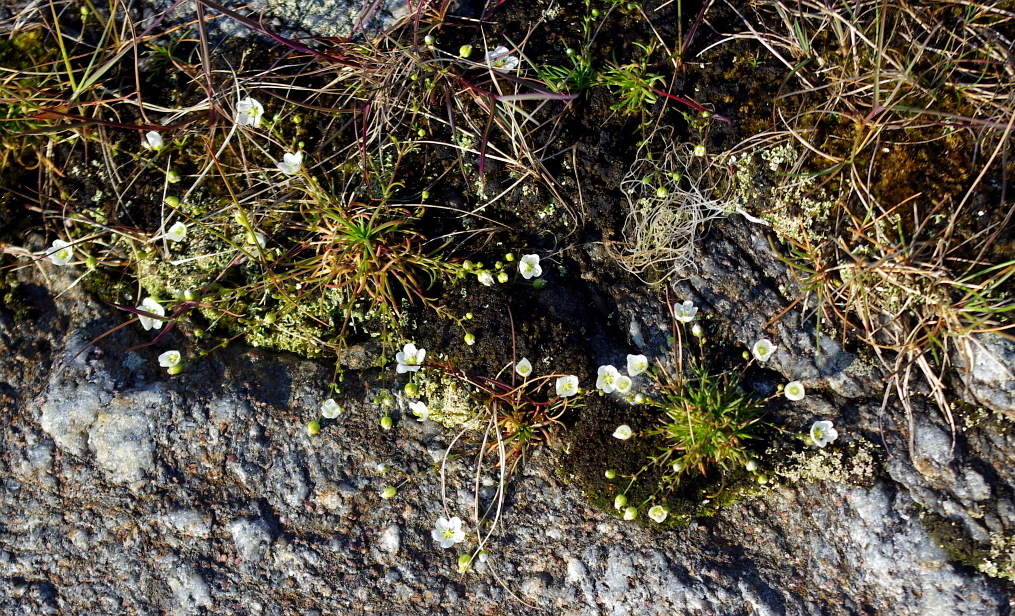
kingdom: Plantae
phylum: Tracheophyta
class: Magnoliopsida
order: Caryophyllales
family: Caryophyllaceae
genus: Sagina
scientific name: Sagina nodosa
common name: Knotted pearlwort
